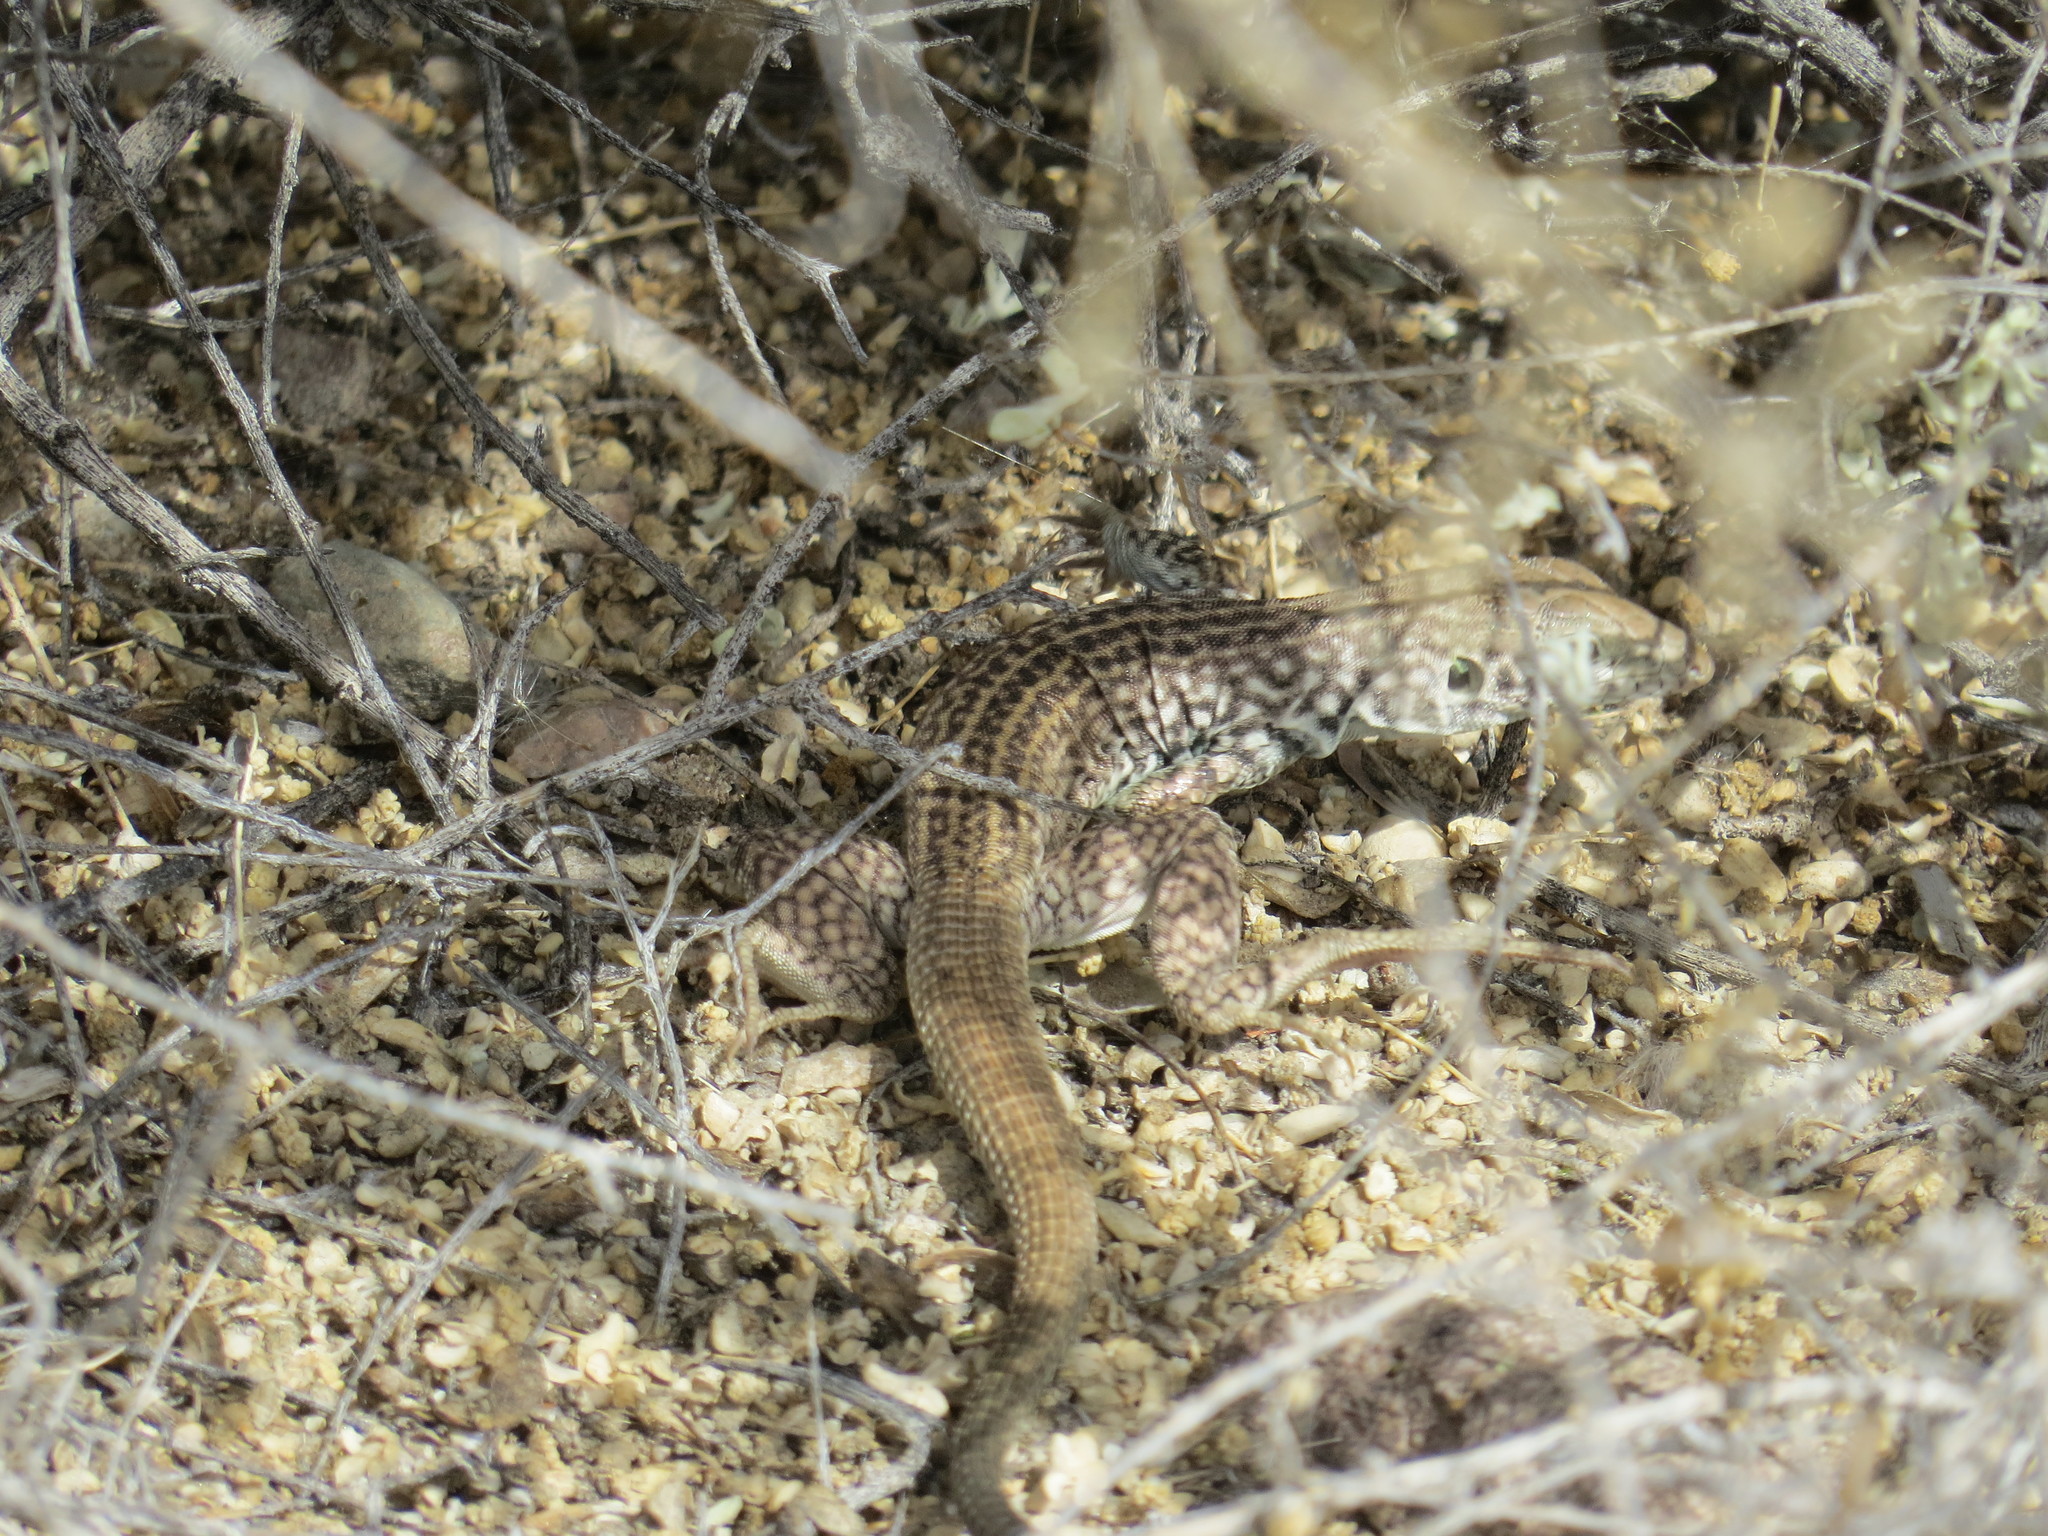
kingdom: Animalia
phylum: Chordata
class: Squamata
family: Teiidae
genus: Aspidoscelis
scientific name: Aspidoscelis tigris
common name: Tiger whiptail
